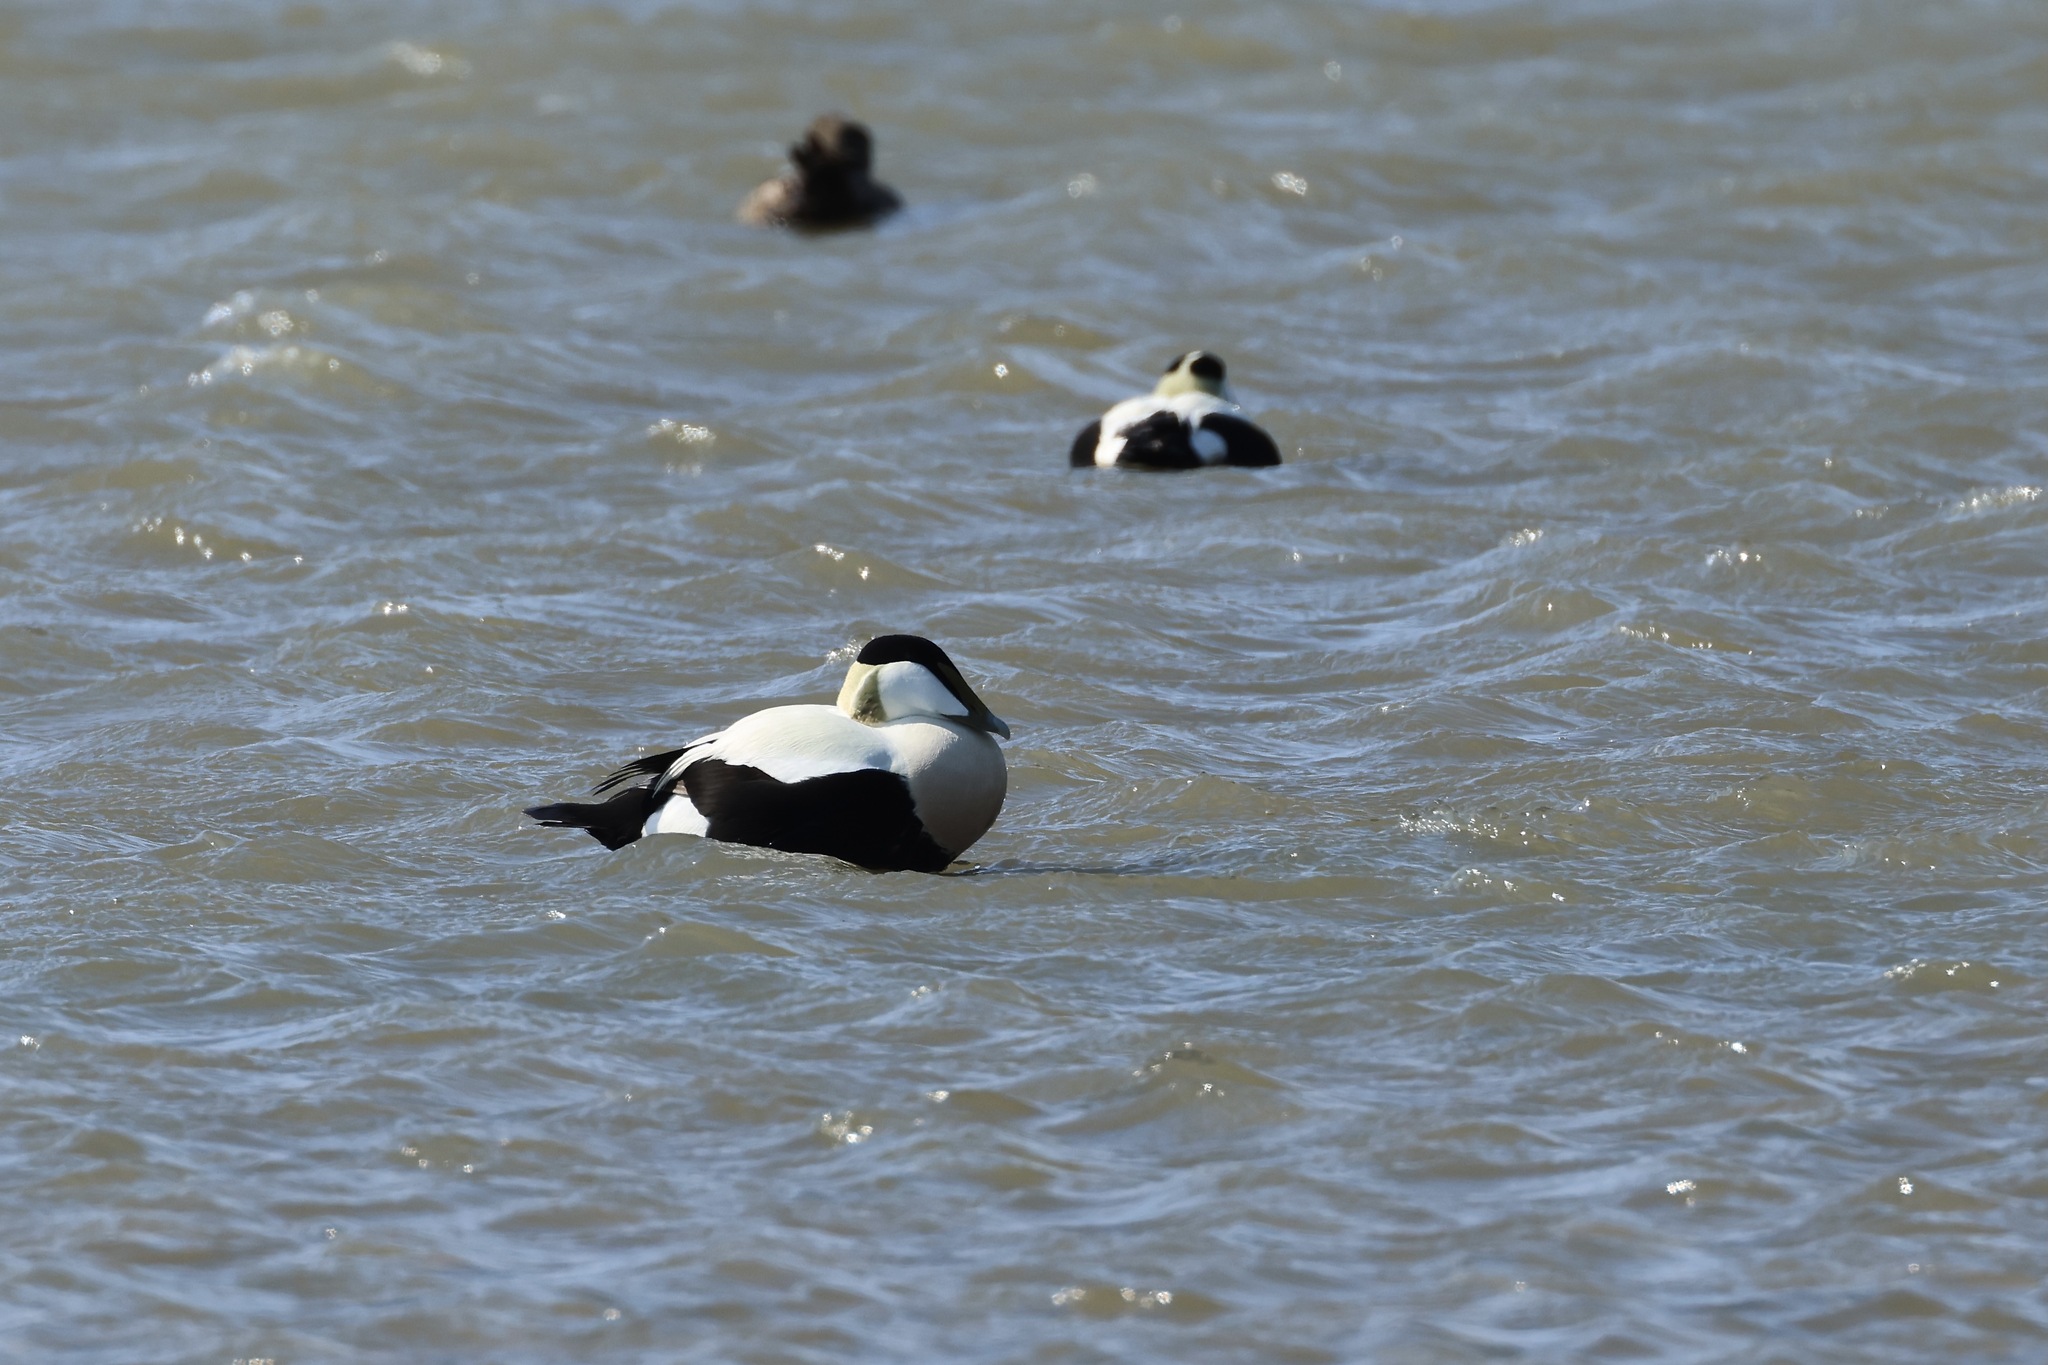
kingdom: Animalia
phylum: Chordata
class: Aves
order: Anseriformes
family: Anatidae
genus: Somateria
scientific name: Somateria mollissima
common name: Common eider
